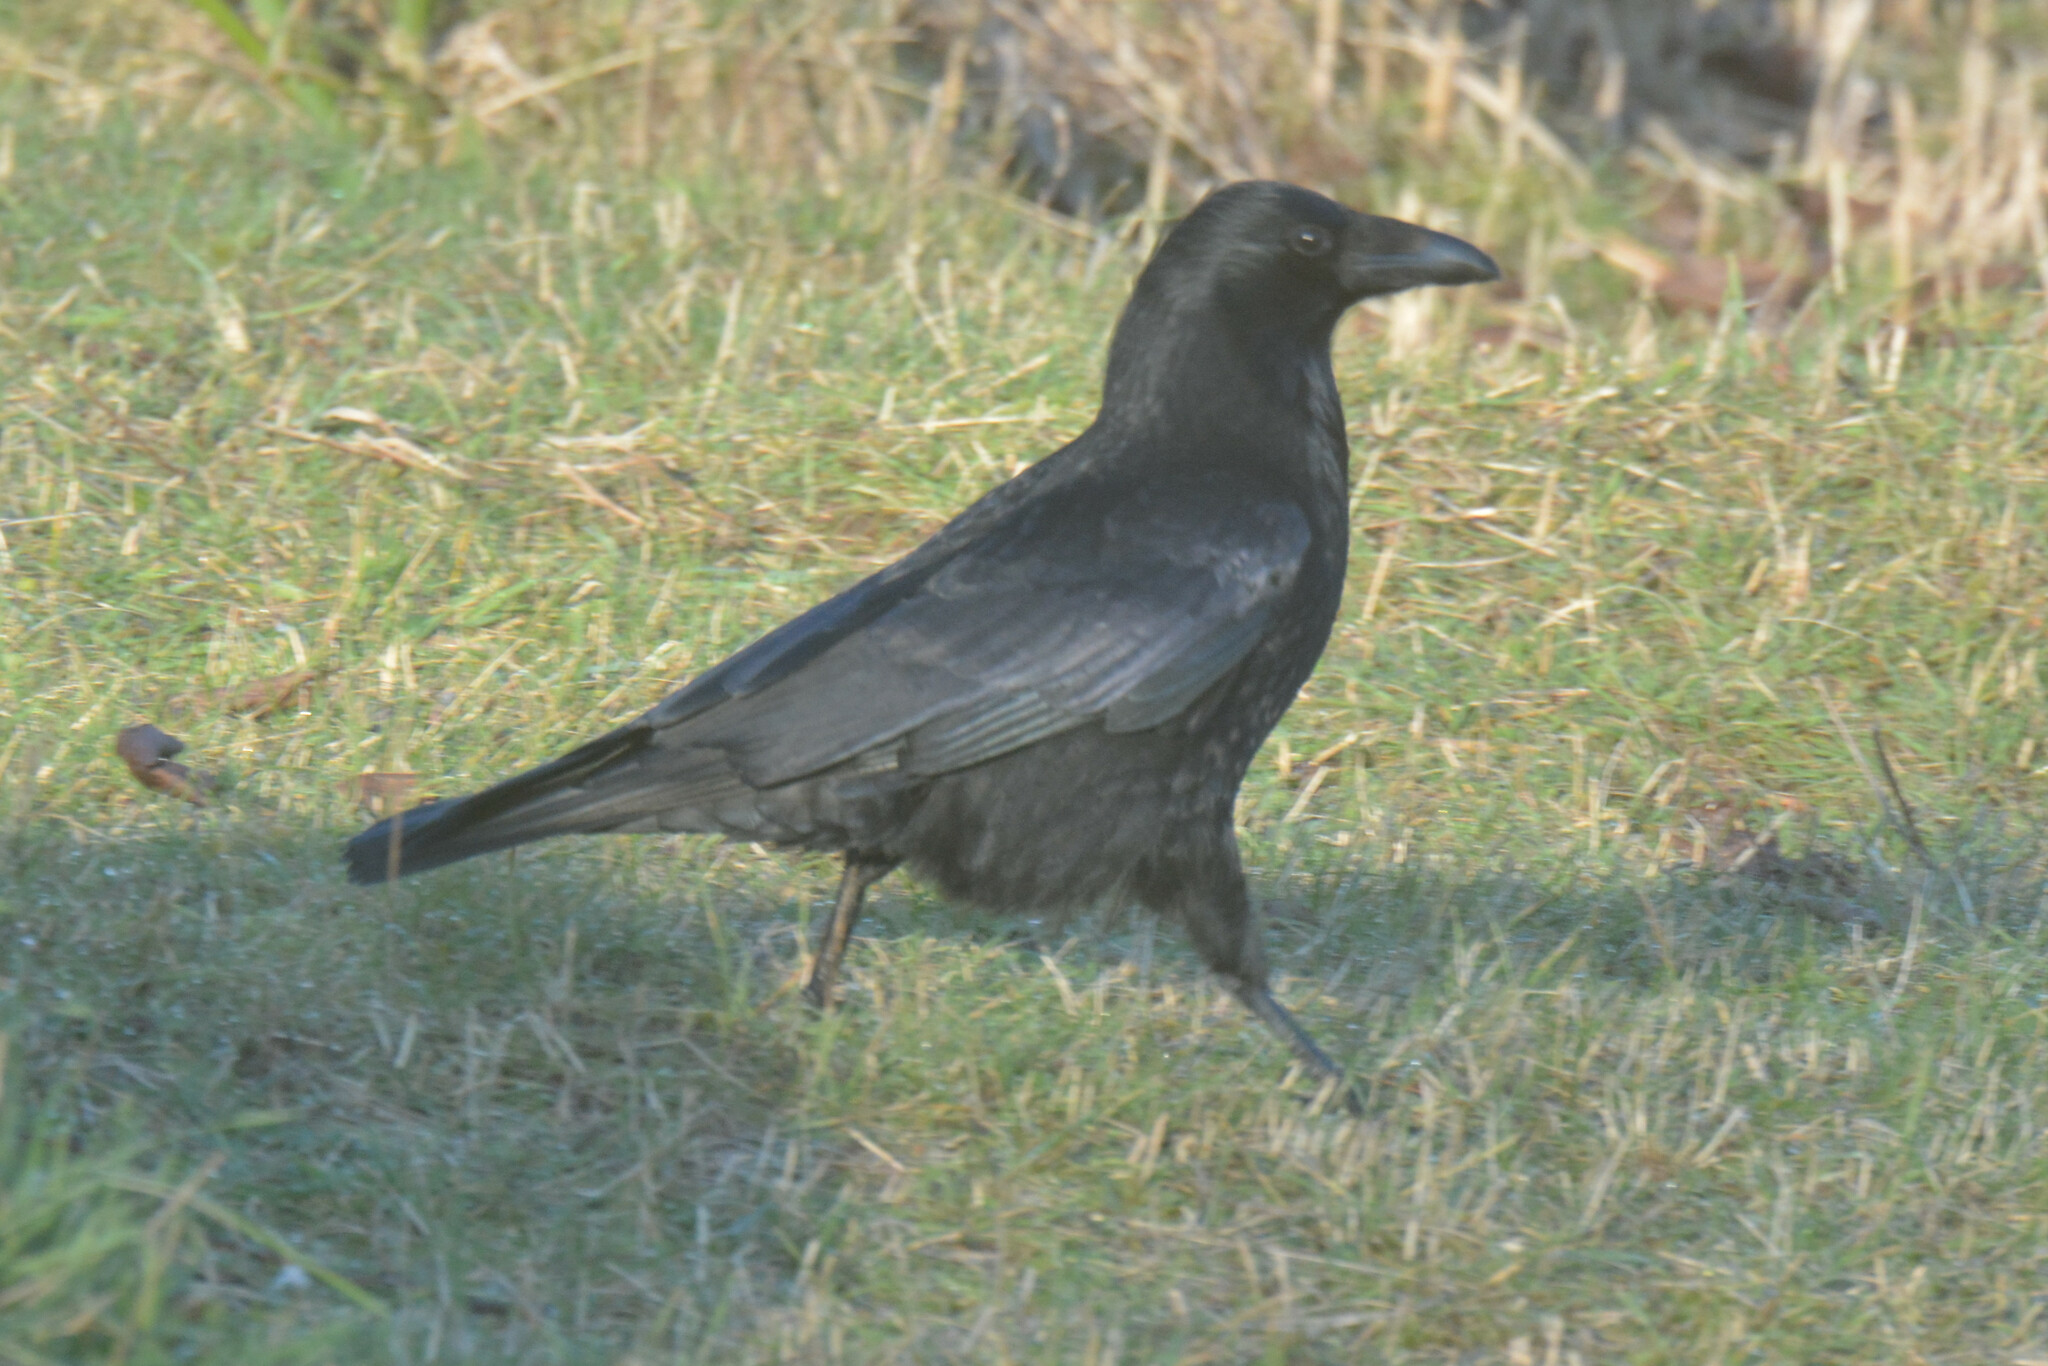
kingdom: Animalia
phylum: Chordata
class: Aves
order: Passeriformes
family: Corvidae
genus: Corvus
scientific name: Corvus corone
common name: Carrion crow
